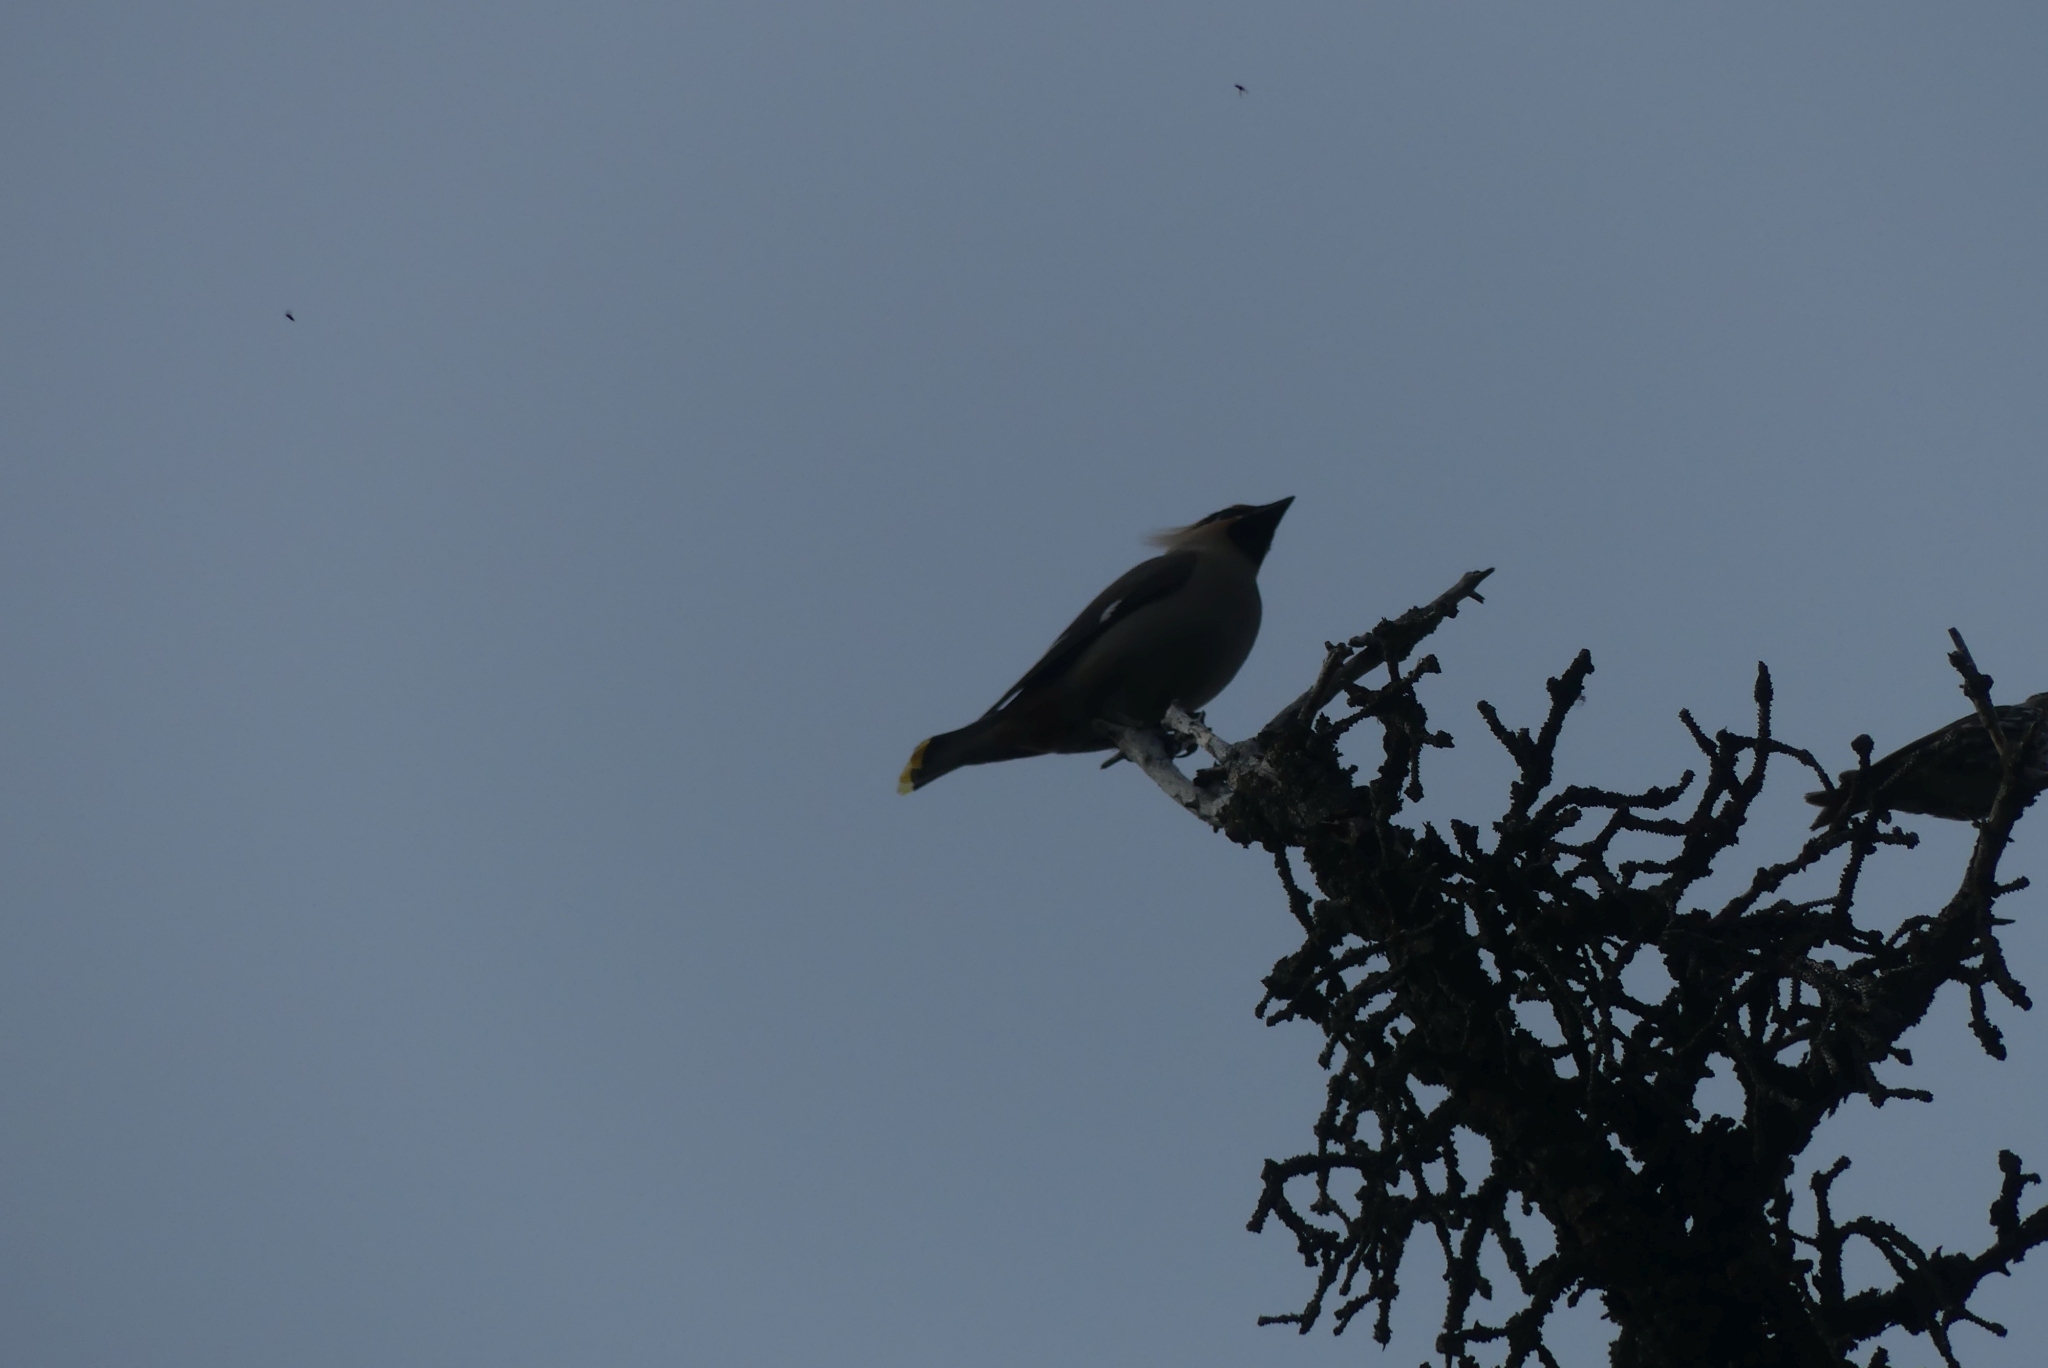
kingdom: Animalia
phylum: Chordata
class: Aves
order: Passeriformes
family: Bombycillidae
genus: Bombycilla
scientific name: Bombycilla garrulus
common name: Bohemian waxwing
